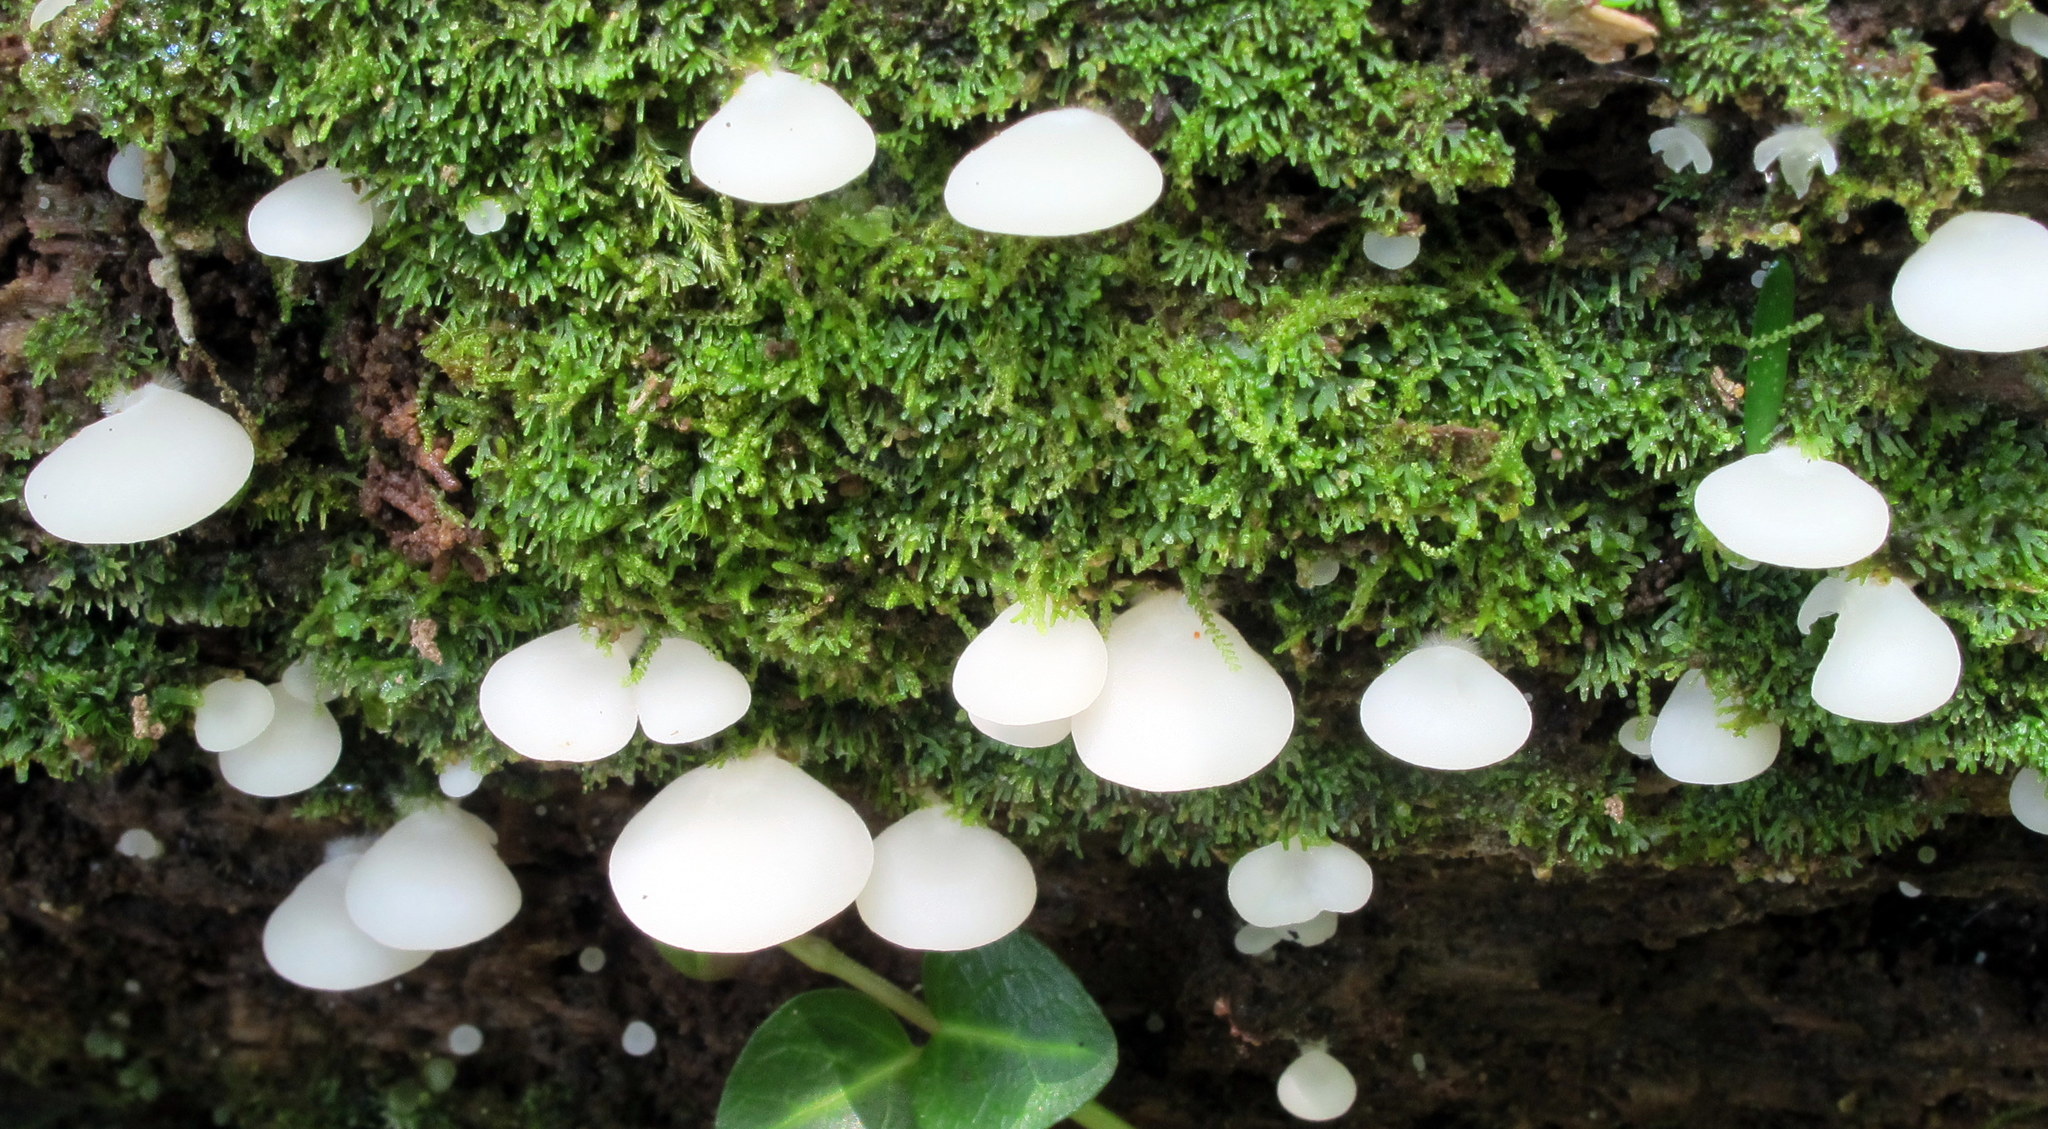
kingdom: Fungi
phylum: Basidiomycota
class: Agaricomycetes
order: Agaricales
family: Cyphellaceae
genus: Cheimonophyllum
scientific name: Cheimonophyllum
